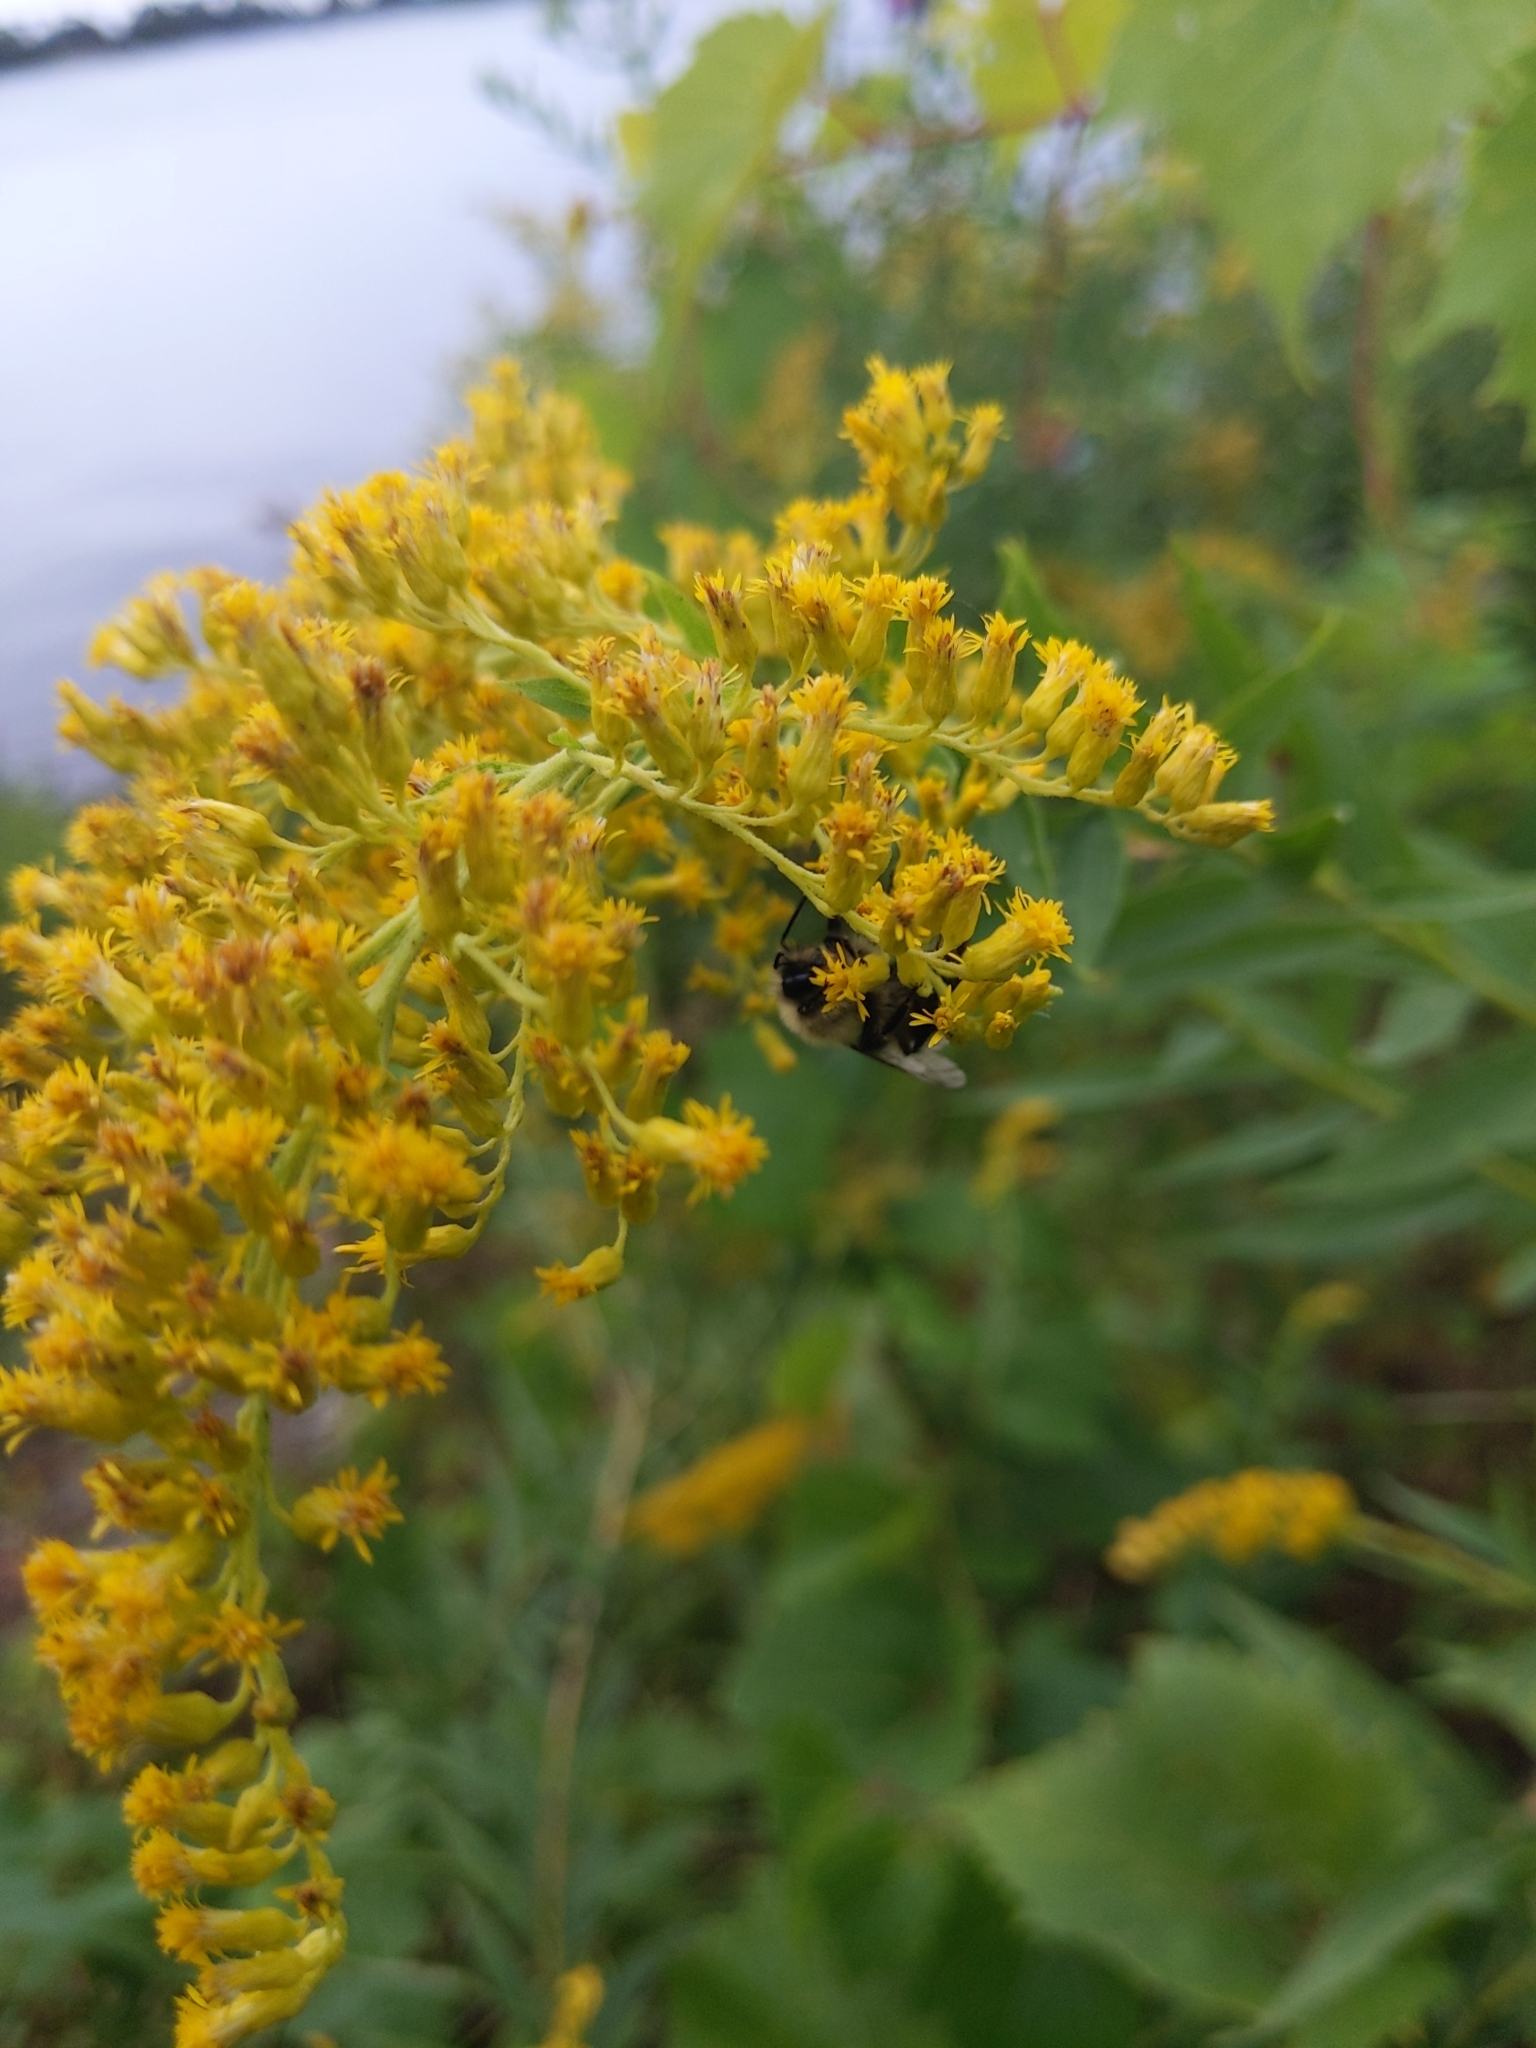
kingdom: Animalia
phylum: Arthropoda
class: Insecta
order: Hymenoptera
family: Apidae
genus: Bombus
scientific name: Bombus impatiens
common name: Common eastern bumble bee
